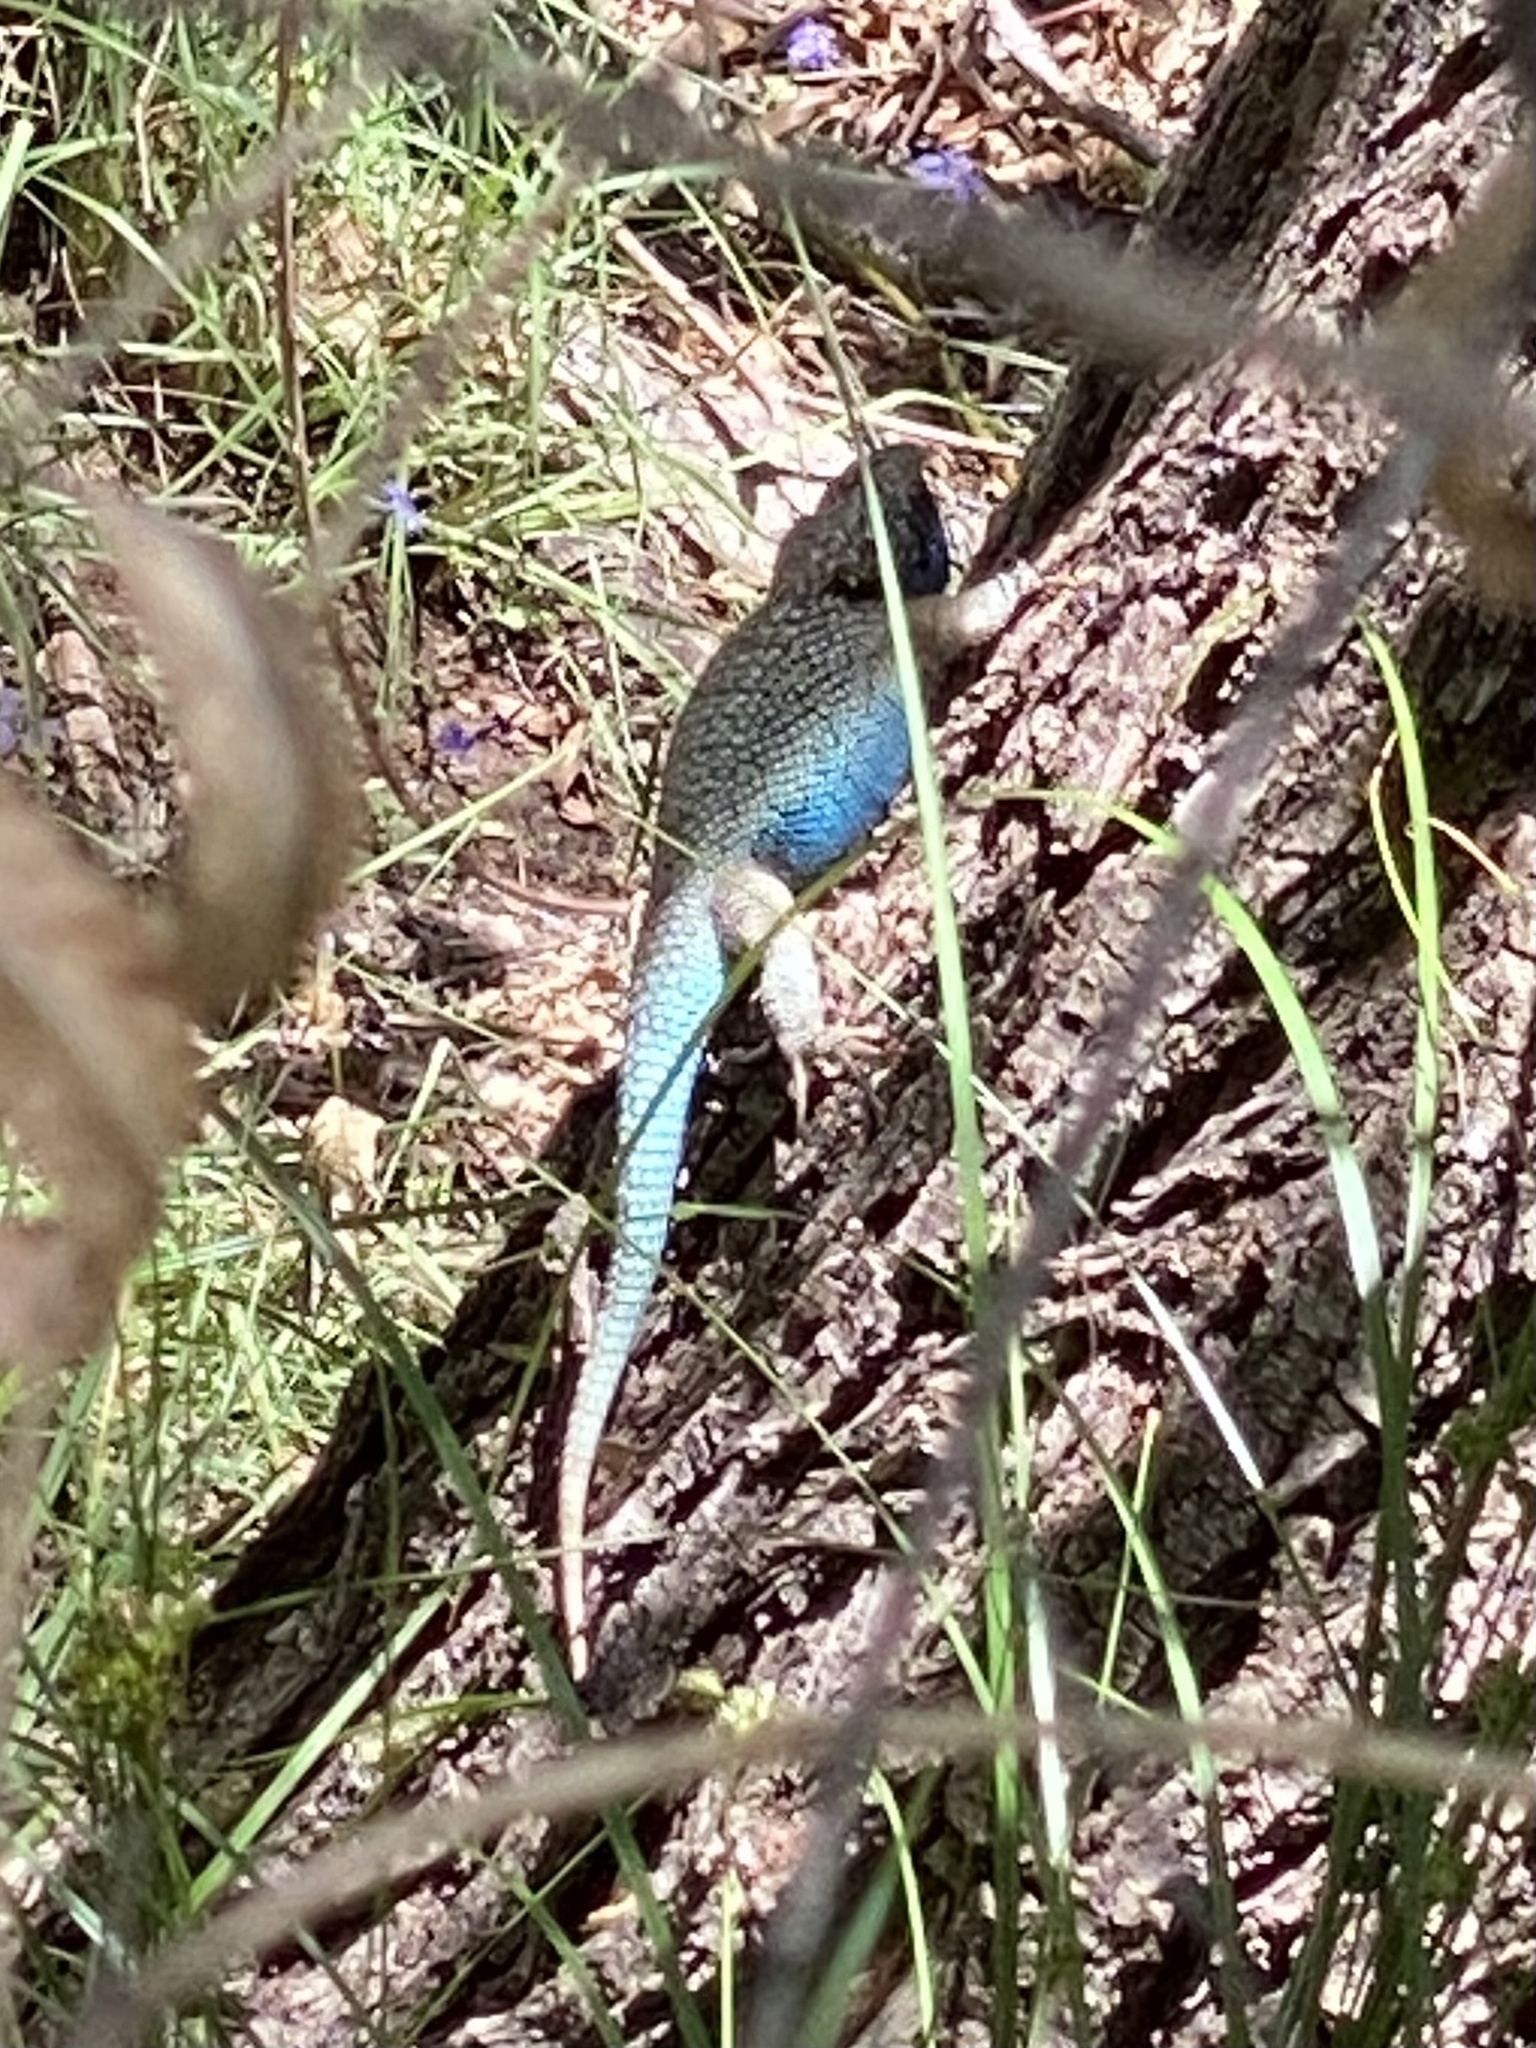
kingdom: Animalia
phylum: Chordata
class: Squamata
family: Phrynosomatidae
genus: Sceloporus
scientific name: Sceloporus clarkii
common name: Clark's spiny lizard
